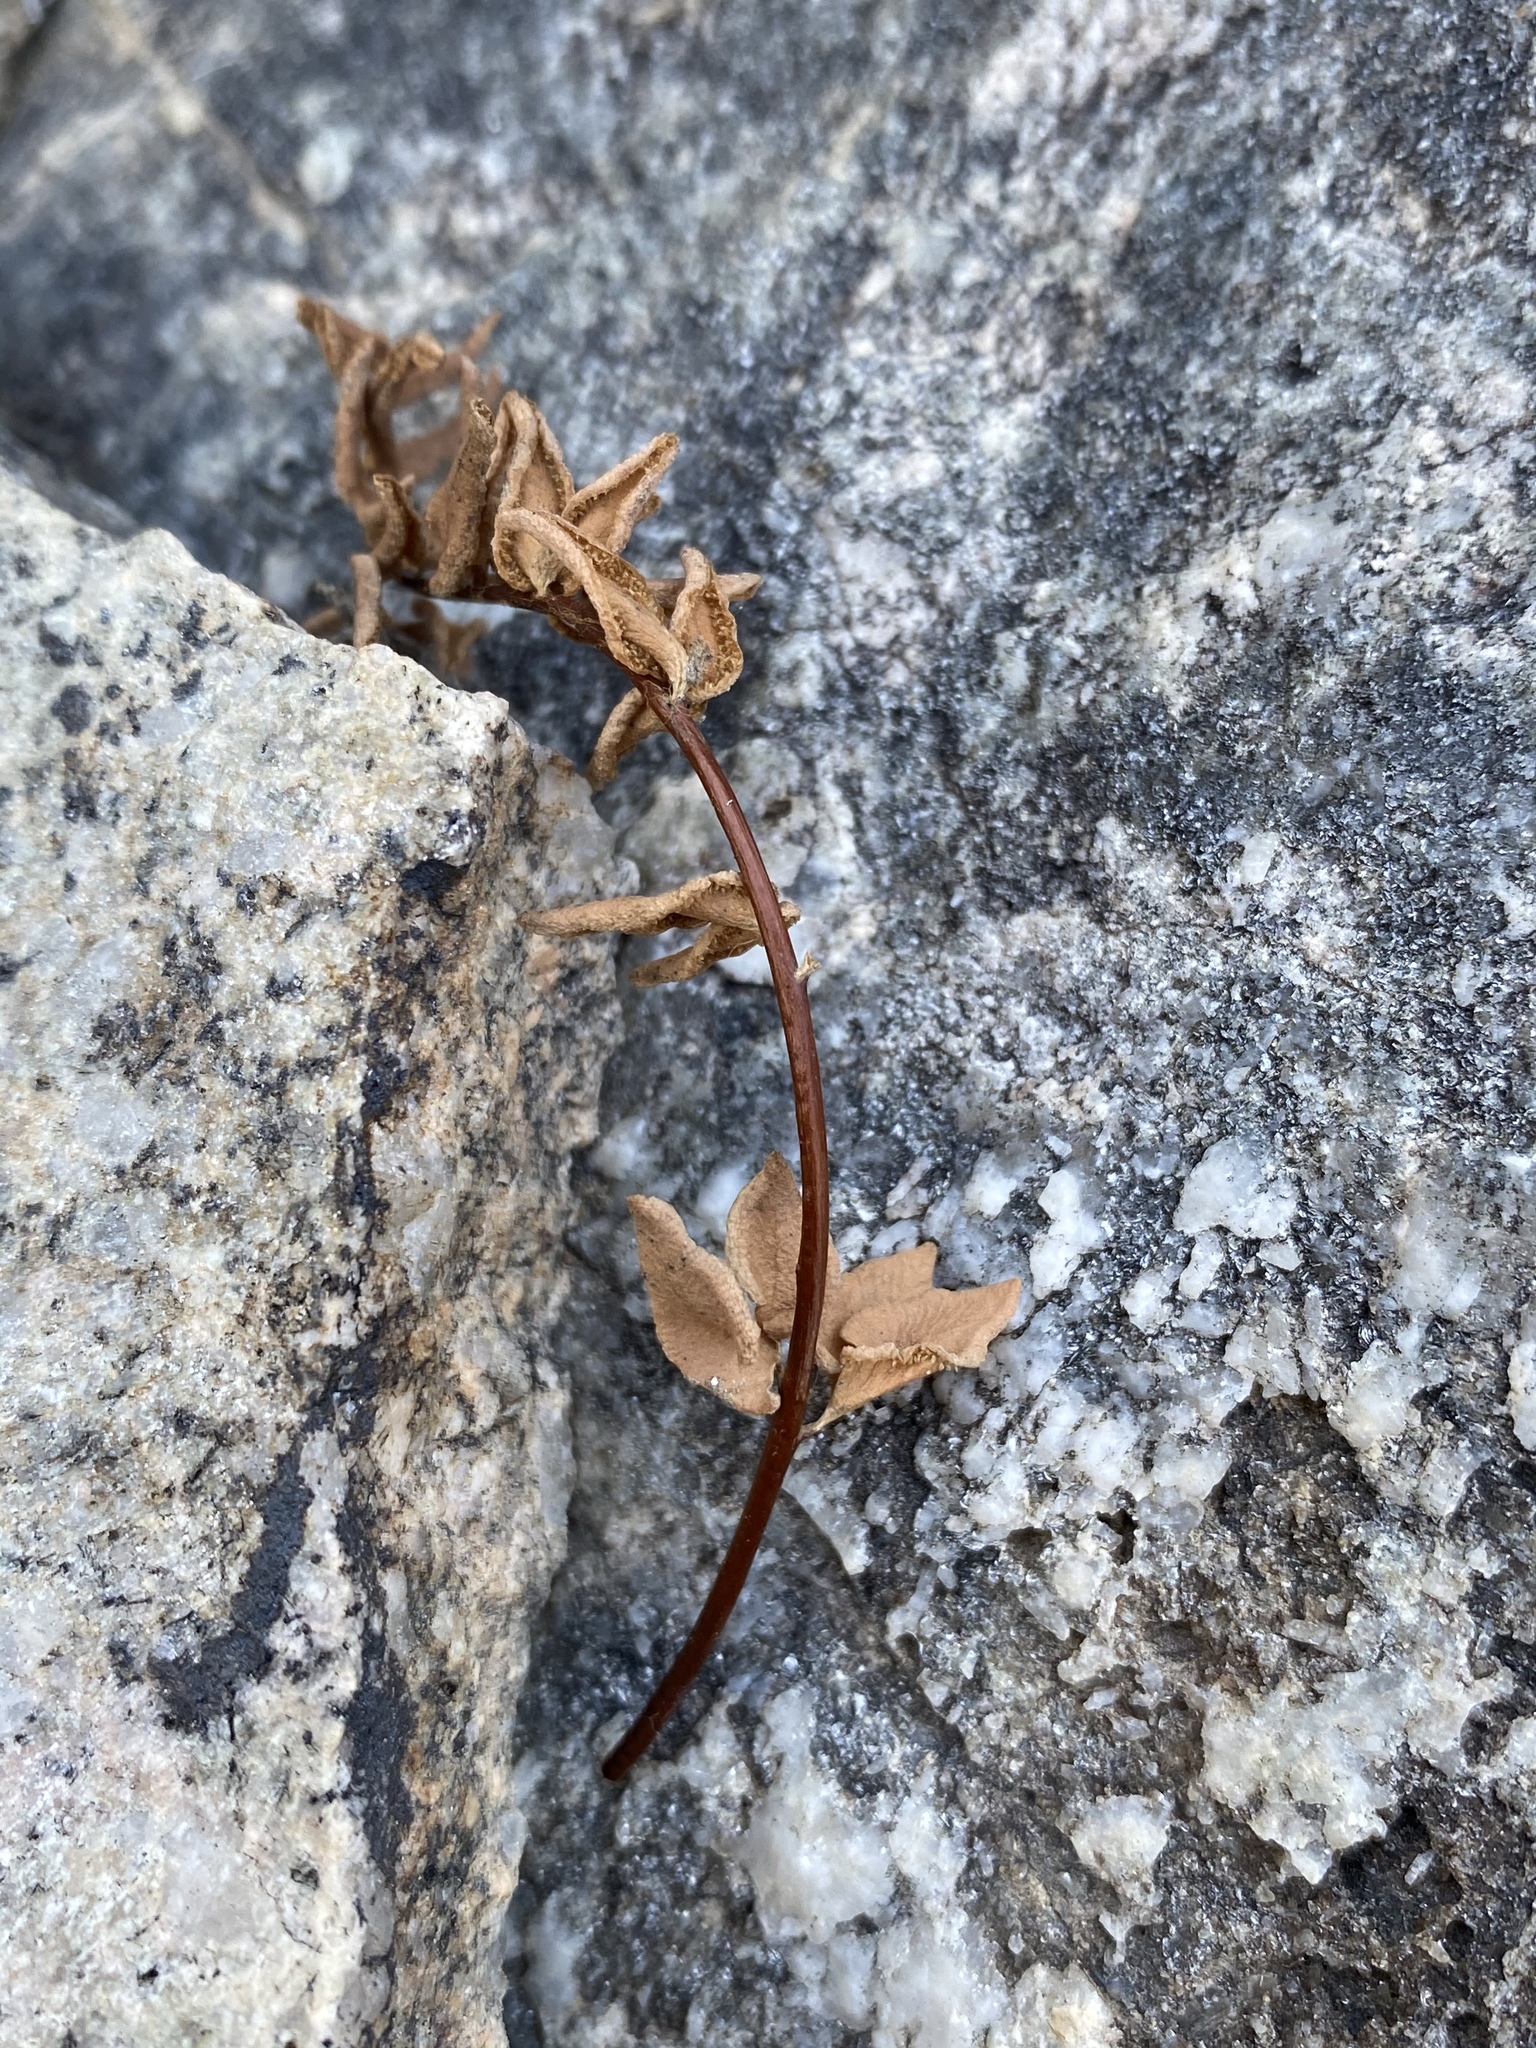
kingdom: Plantae
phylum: Tracheophyta
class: Polypodiopsida
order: Polypodiales
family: Pteridaceae
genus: Pellaea
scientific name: Pellaea breweri
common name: Brewer's cliffbrake
